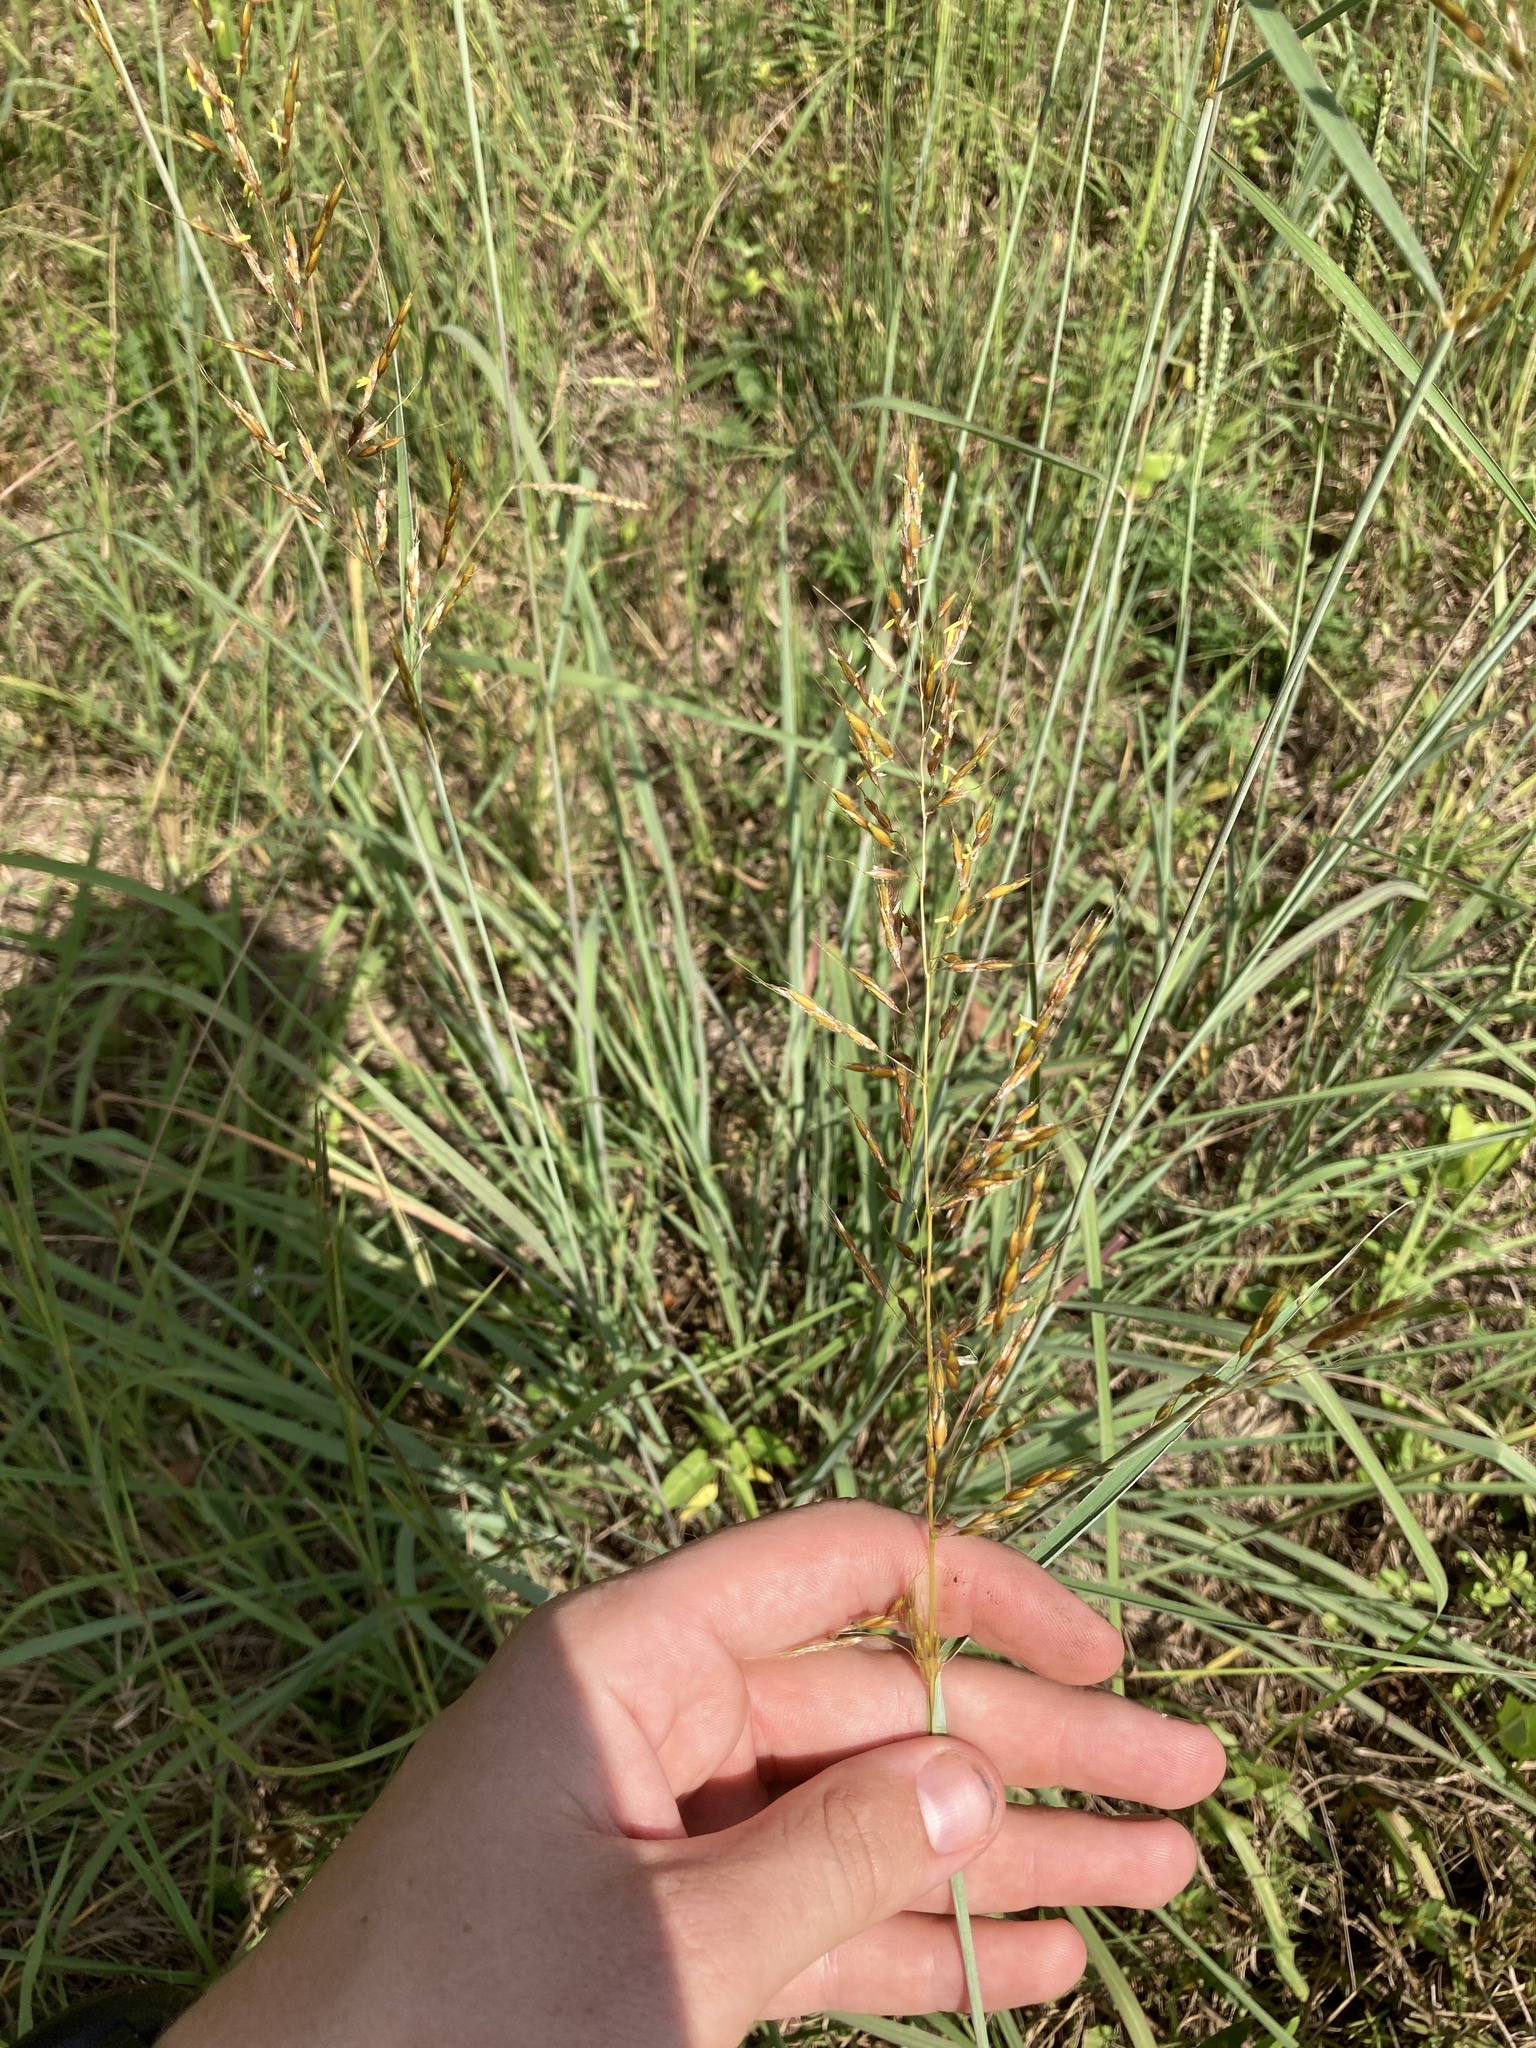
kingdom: Plantae
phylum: Tracheophyta
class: Liliopsida
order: Poales
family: Poaceae
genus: Sorghastrum
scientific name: Sorghastrum nutans
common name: Indian grass
